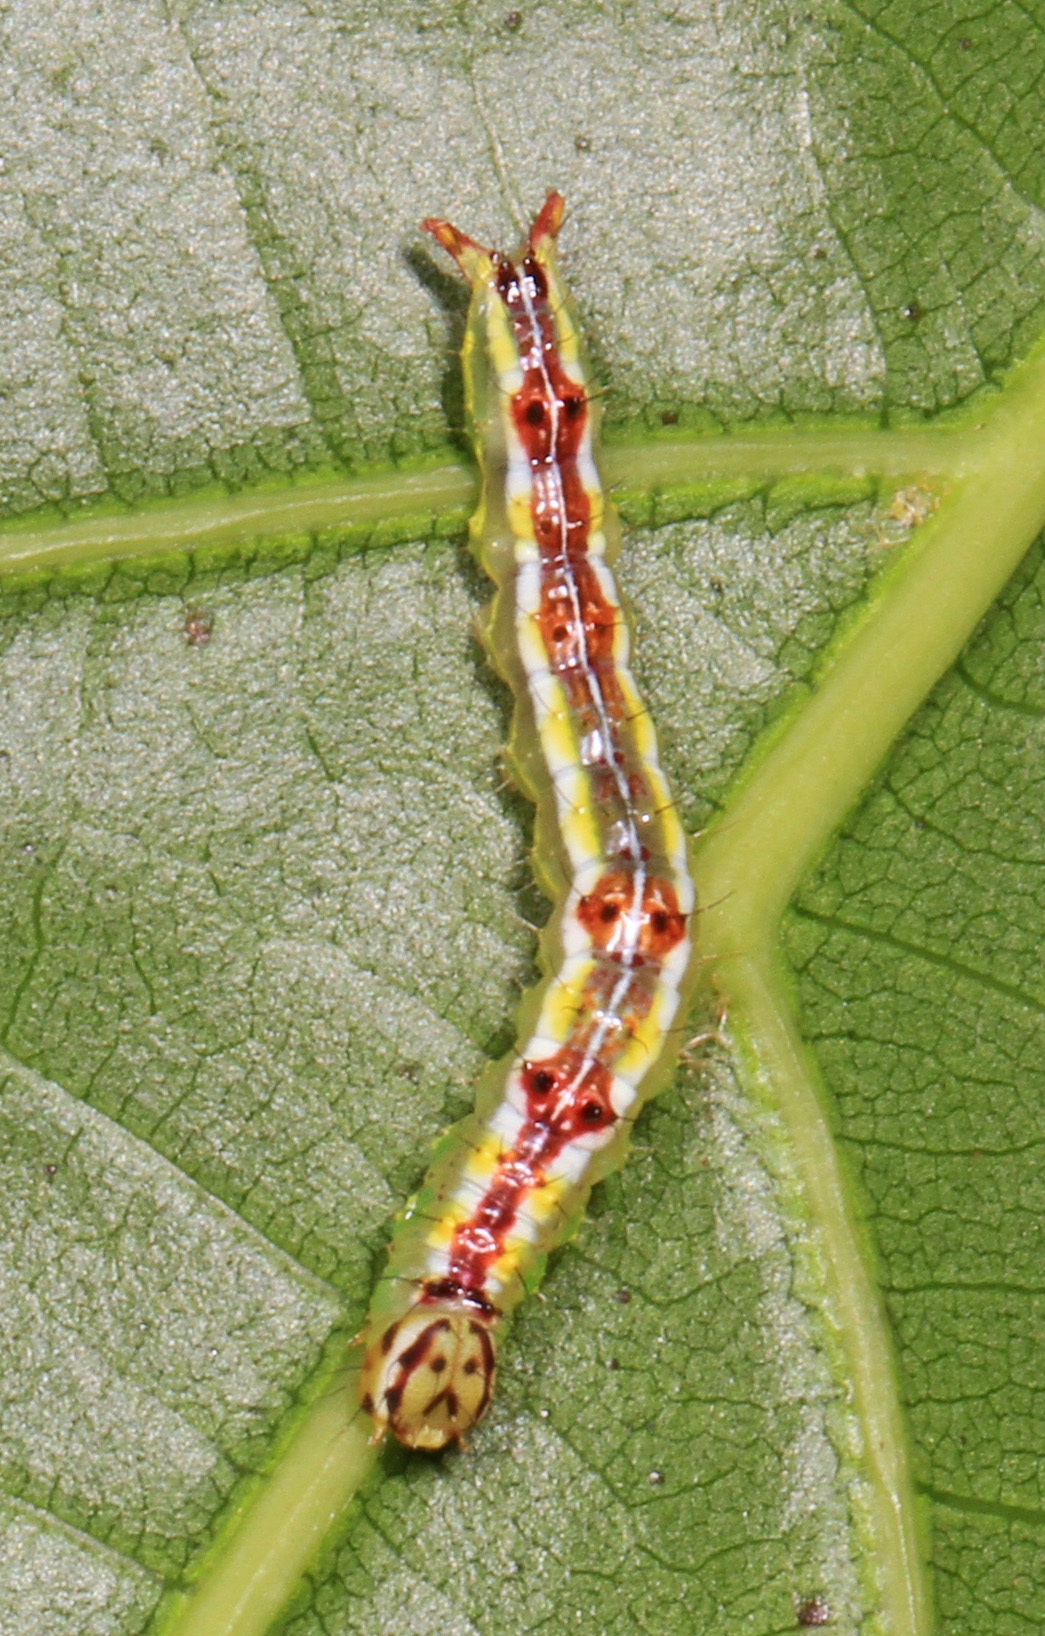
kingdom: Animalia
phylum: Arthropoda
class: Insecta
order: Lepidoptera
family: Notodontidae
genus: Lochmaeus
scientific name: Lochmaeus manteo
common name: Variable oakleaf caterpillar moth
